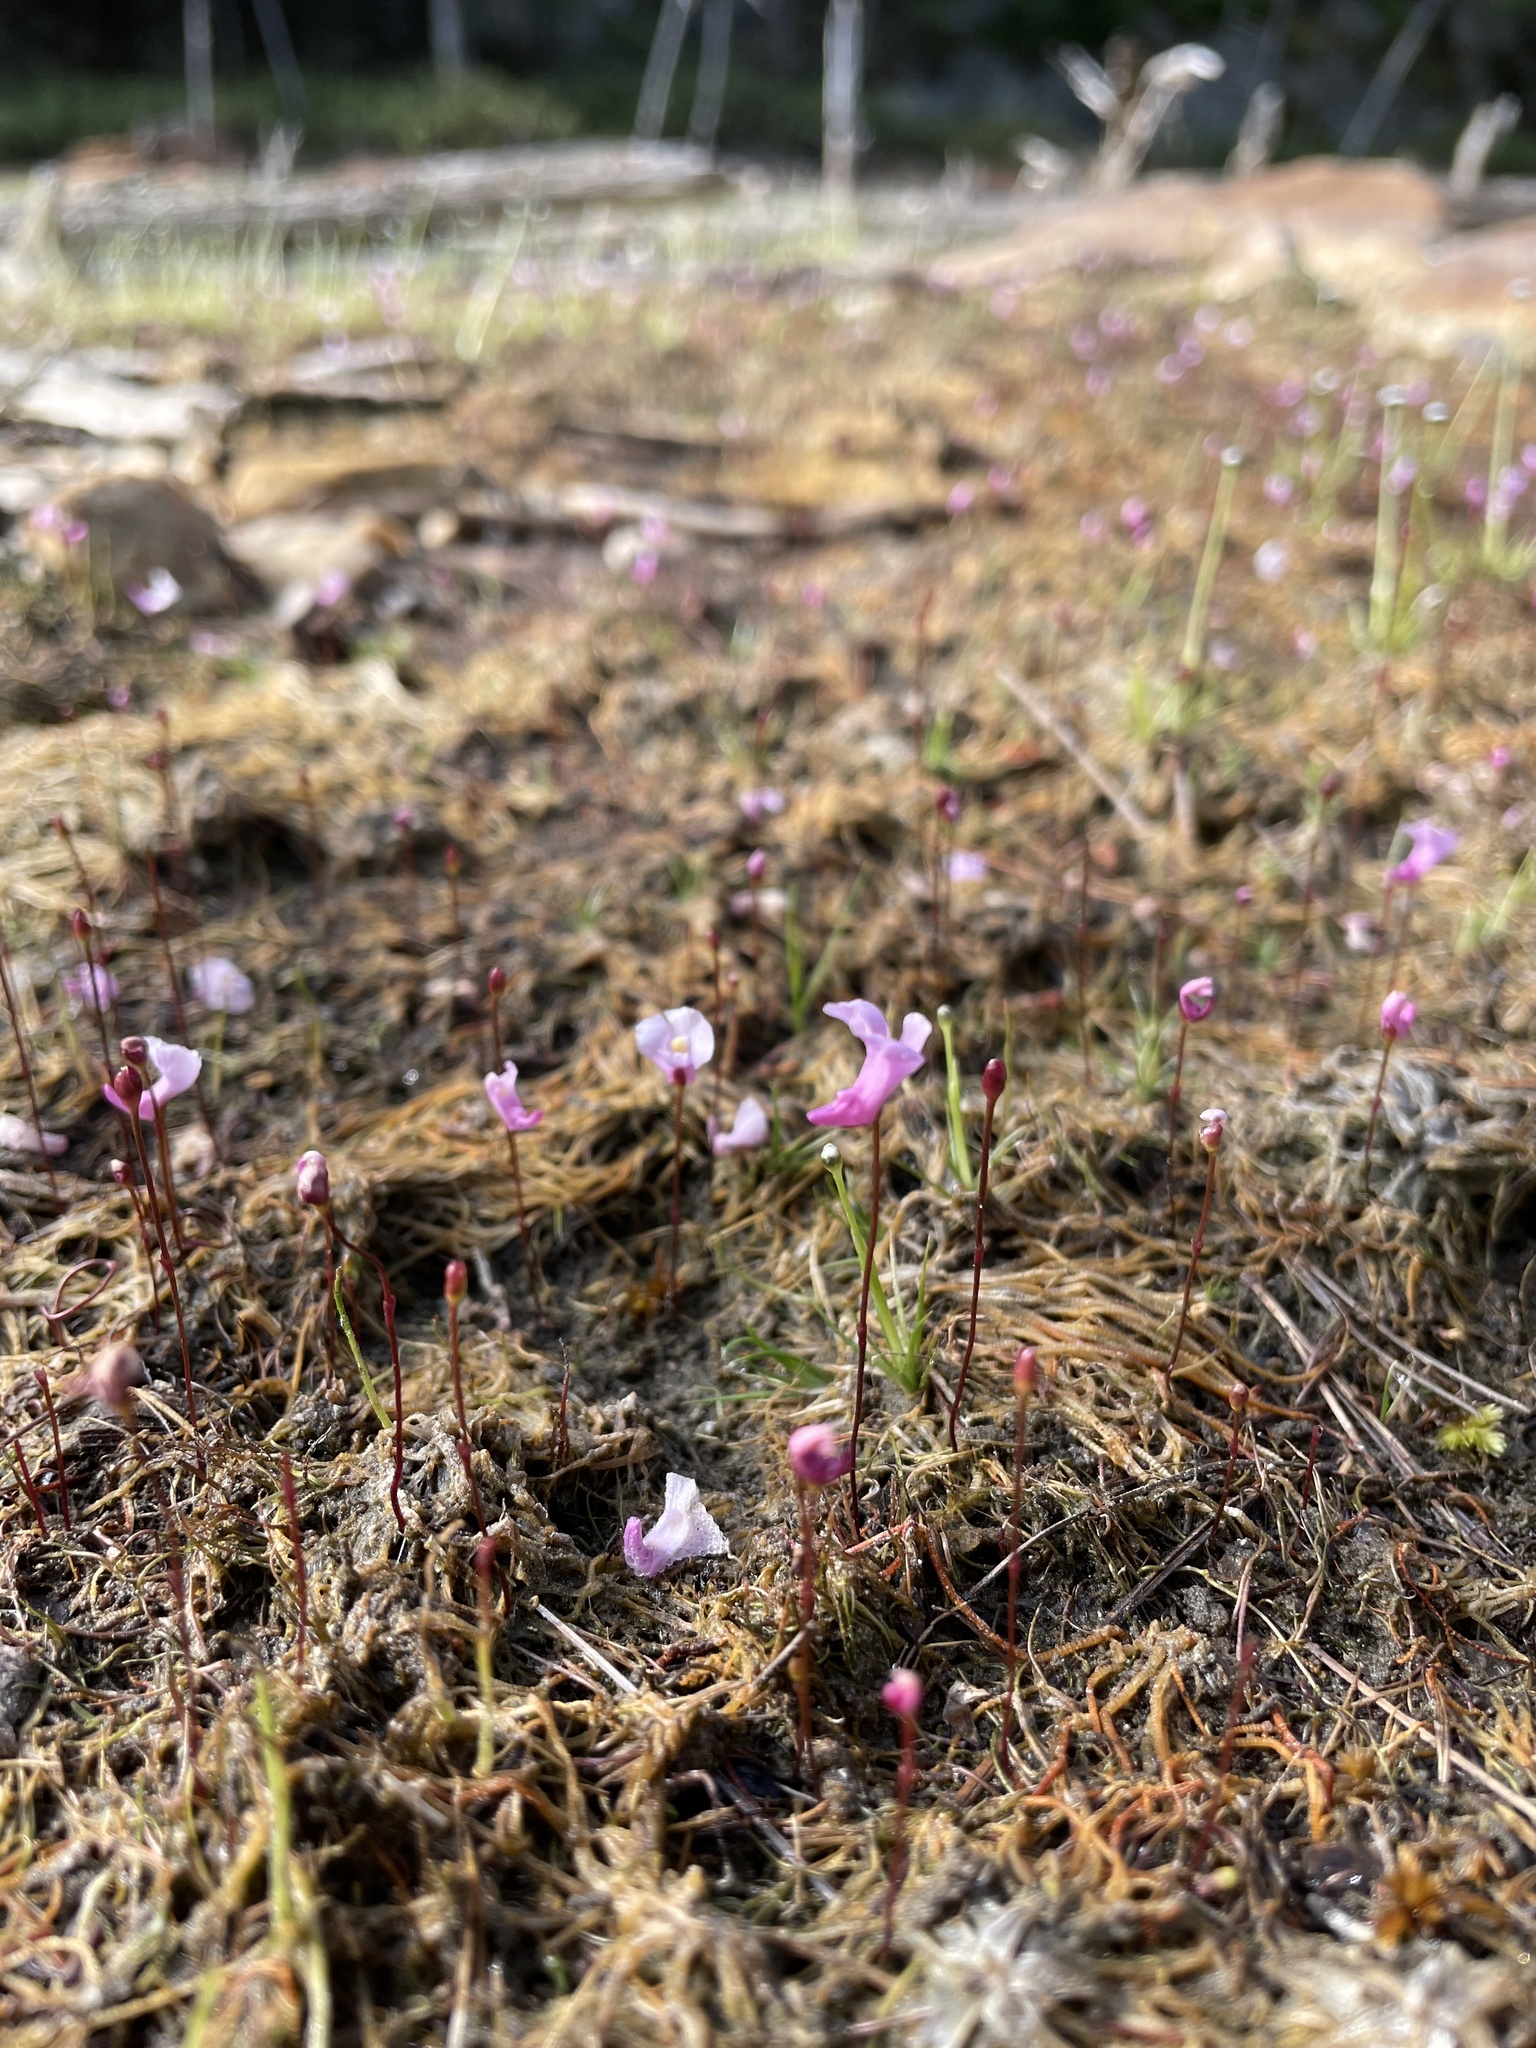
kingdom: Plantae
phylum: Tracheophyta
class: Magnoliopsida
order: Lamiales
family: Lentibulariaceae
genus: Utricularia
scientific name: Utricularia resupinata
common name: Northeastern bladderwort
